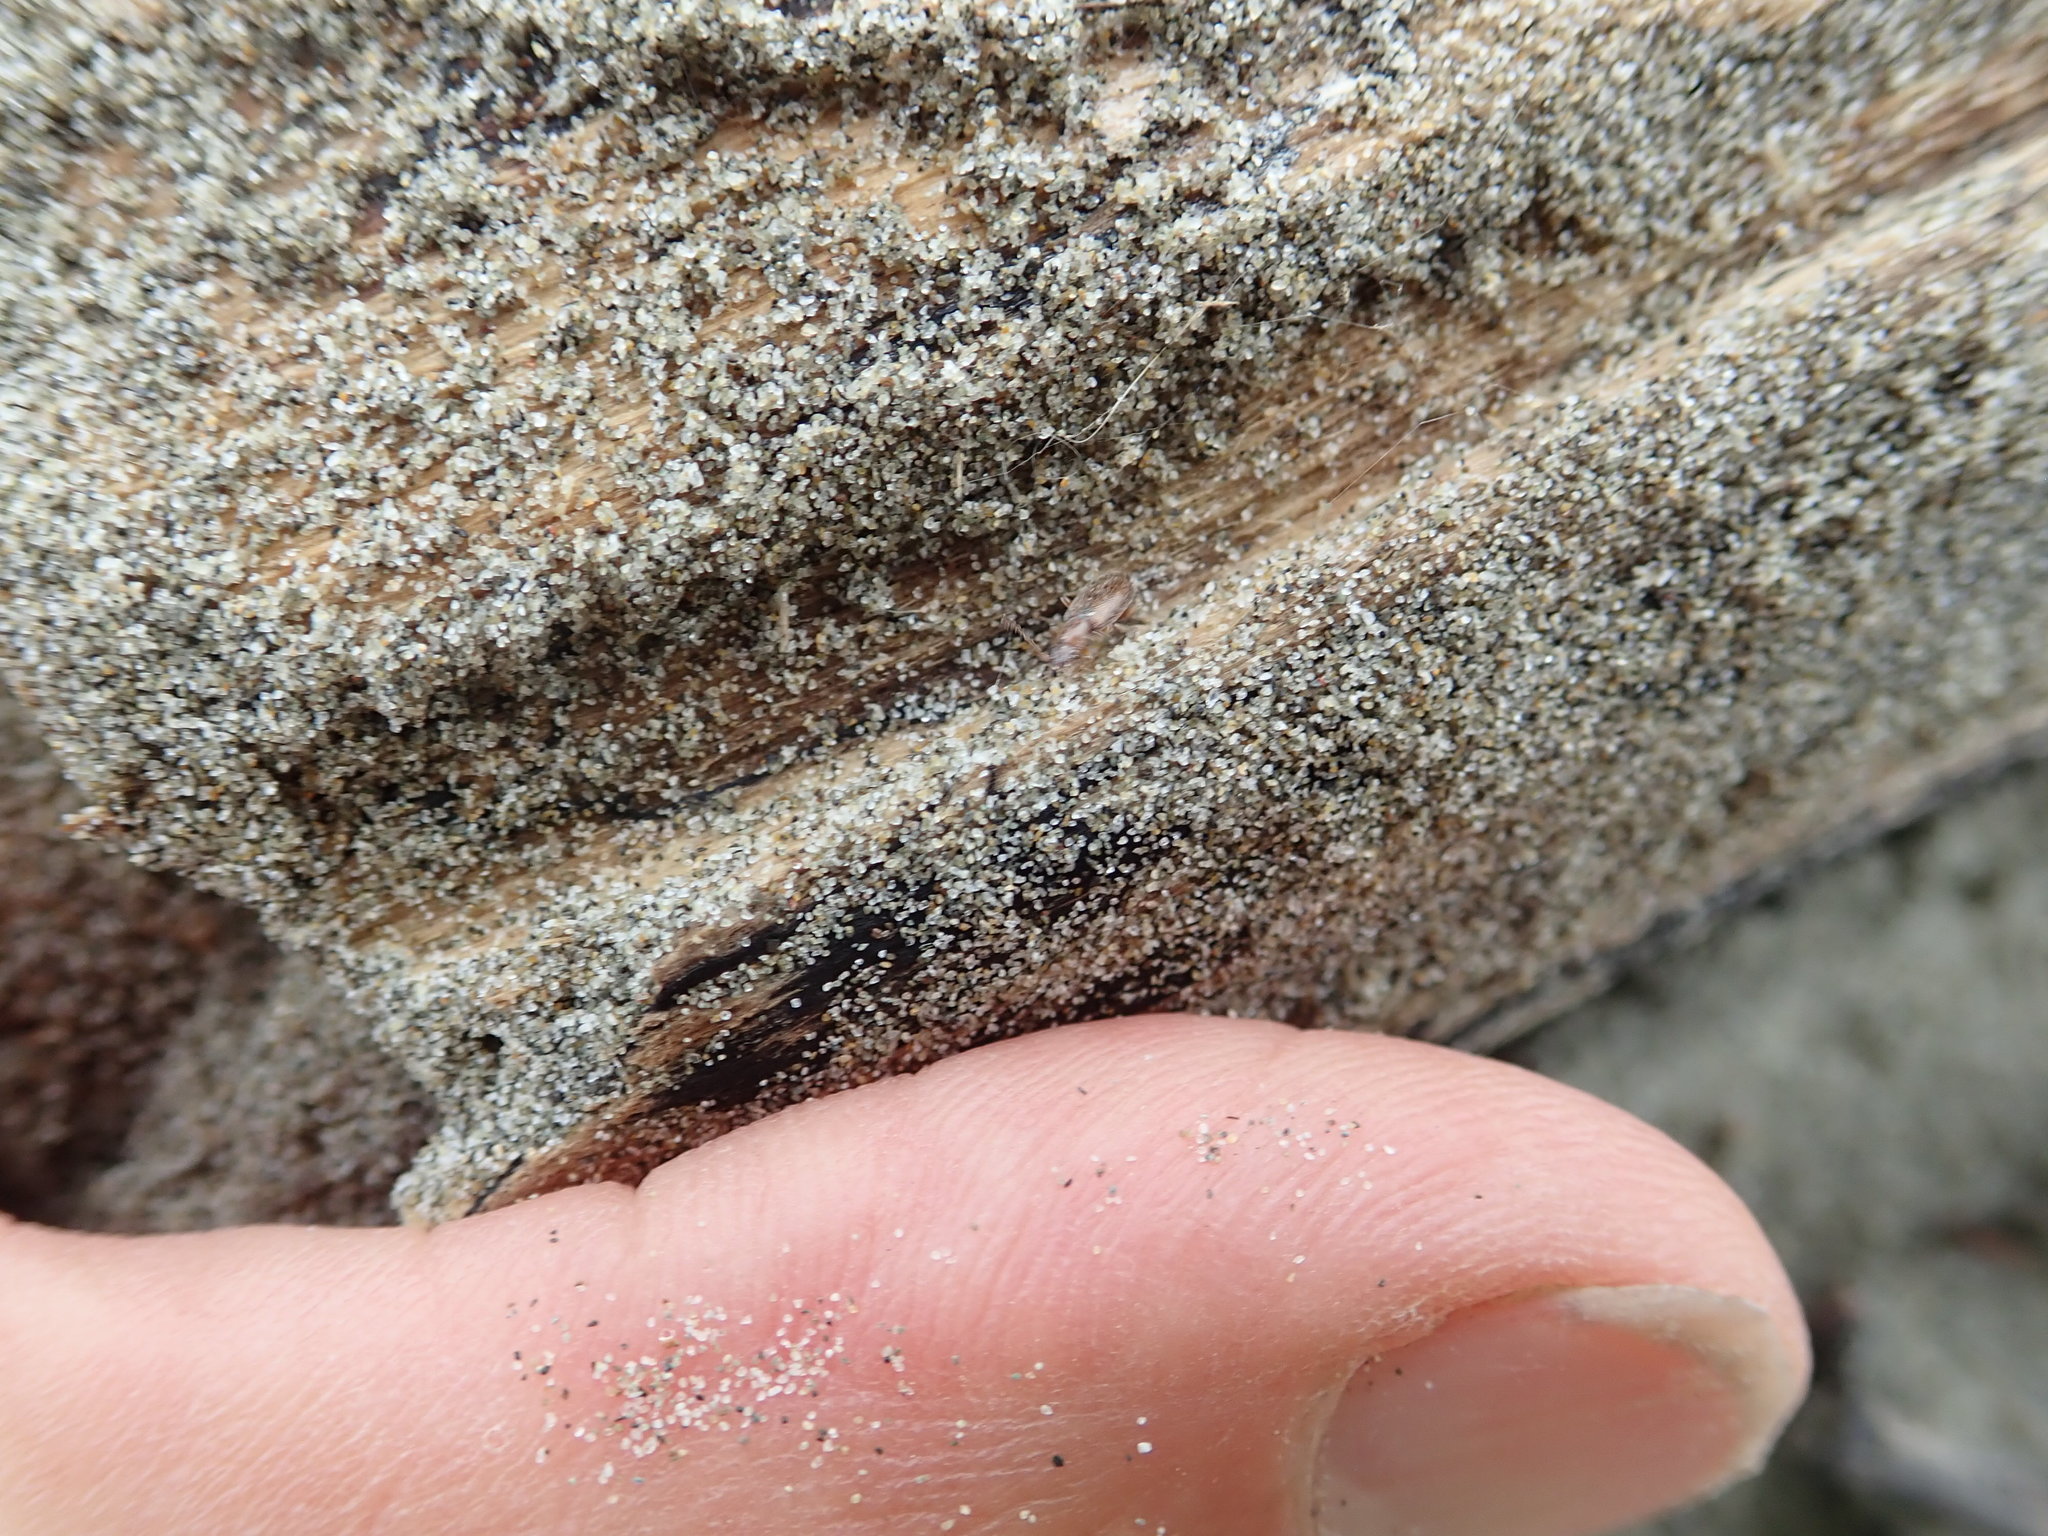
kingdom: Animalia
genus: Lagrioda
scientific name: Lagrioda brounii
